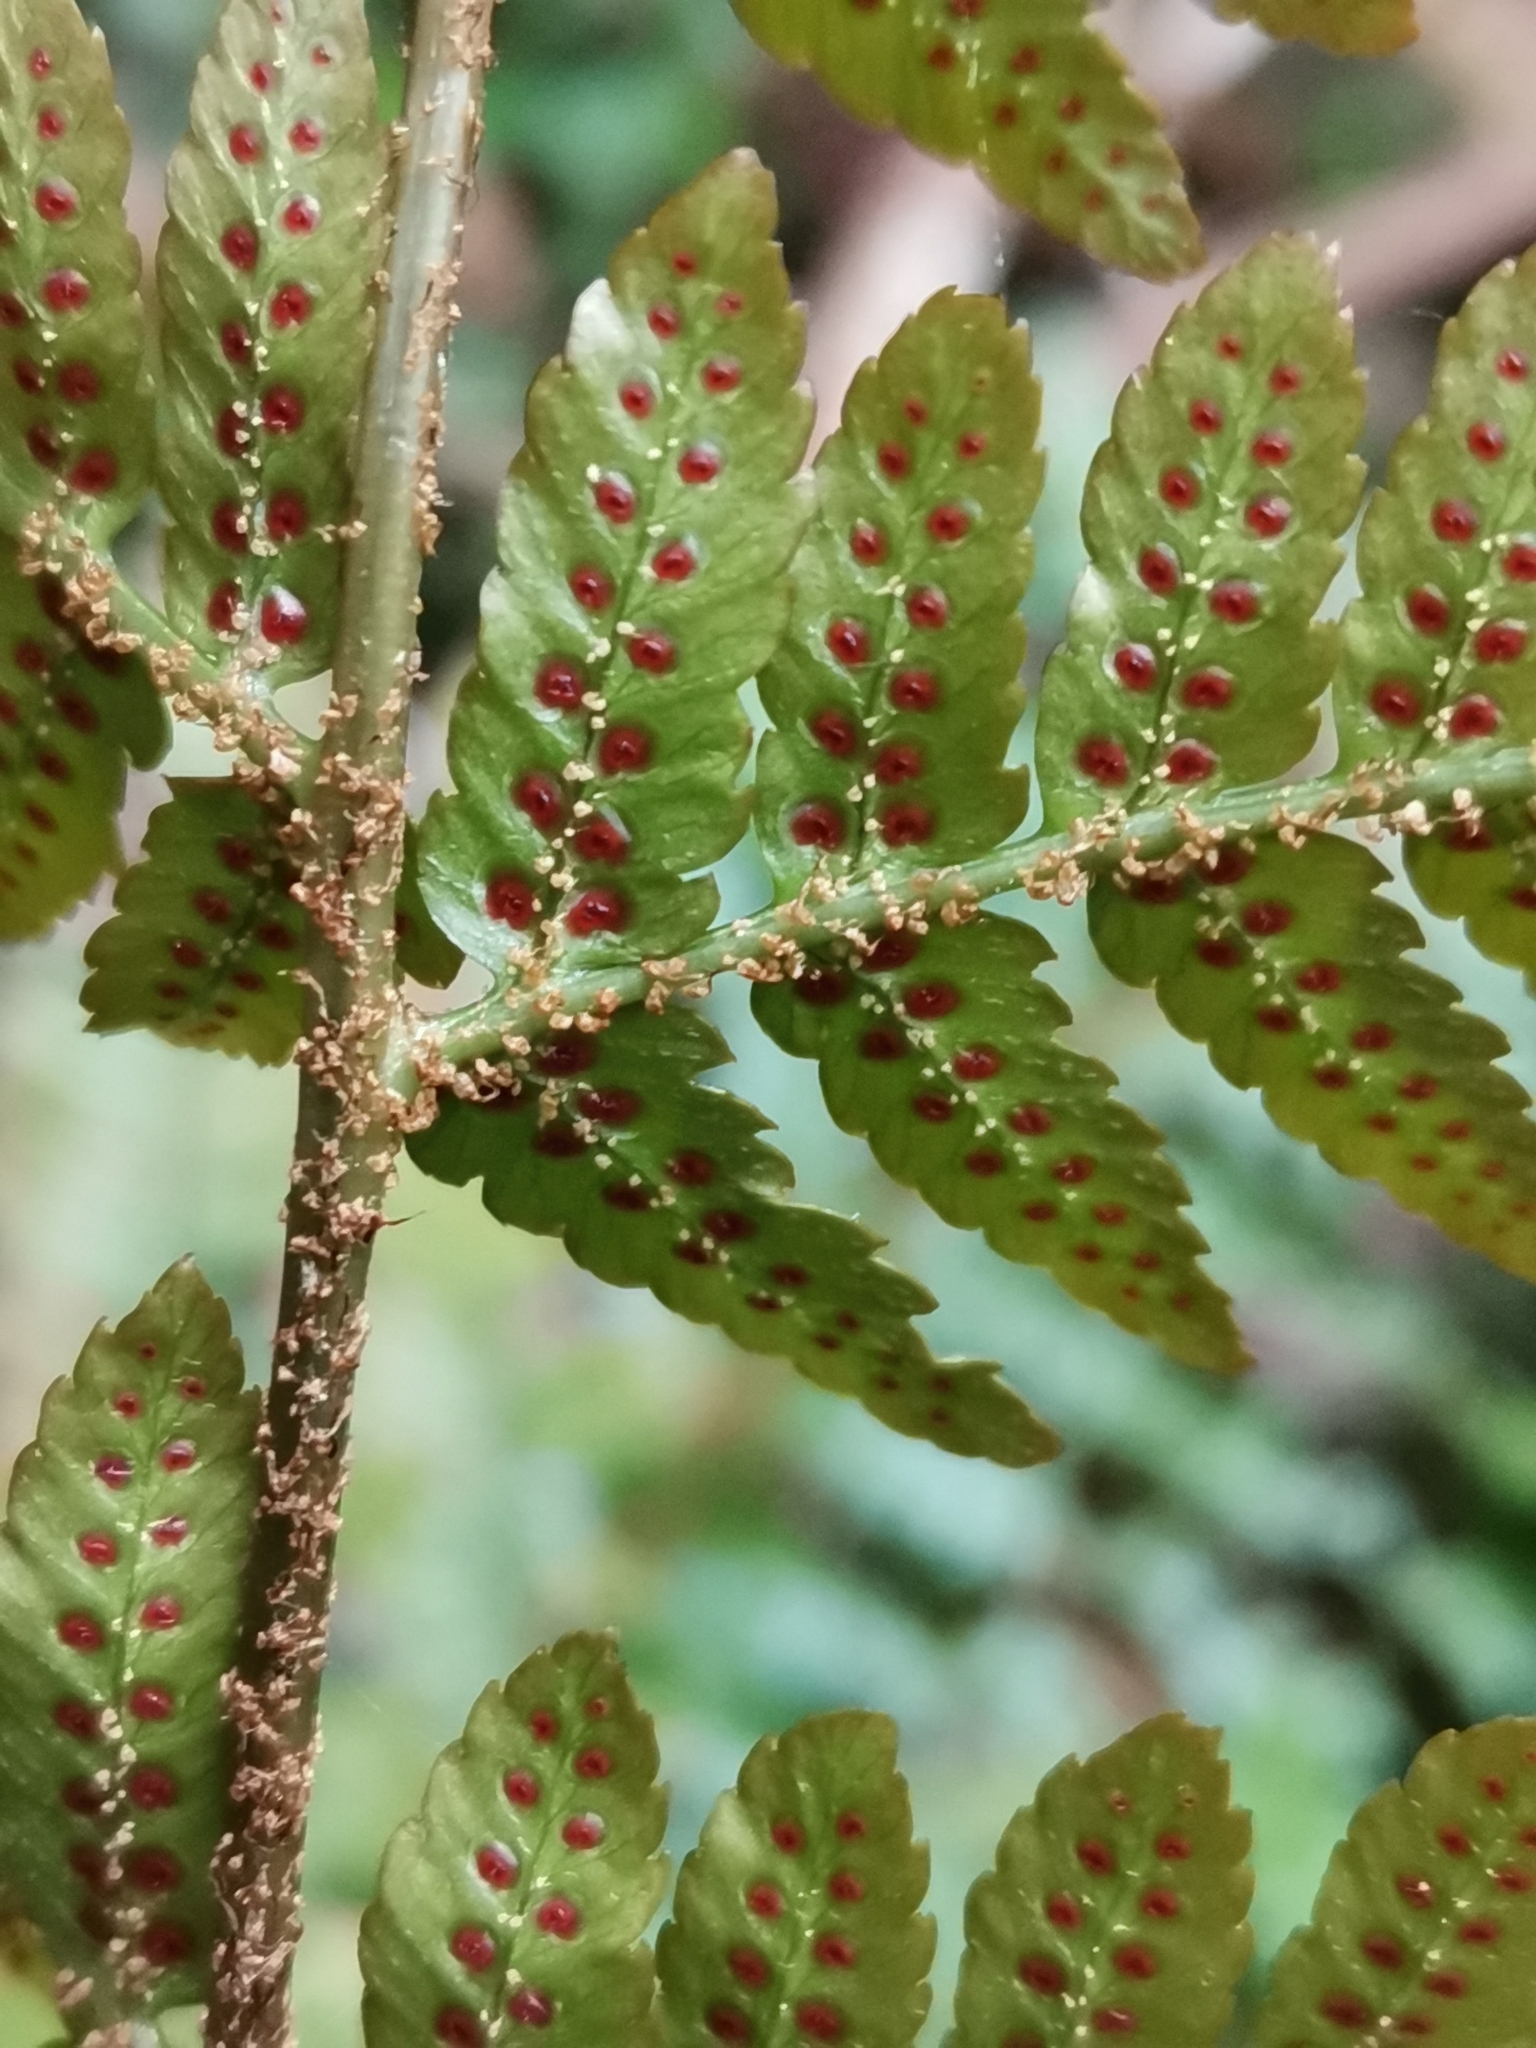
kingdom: Plantae
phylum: Tracheophyta
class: Polypodiopsida
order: Polypodiales
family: Dryopteridaceae
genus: Dryopteris
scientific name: Dryopteris erythrosora
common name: Autumn fern
